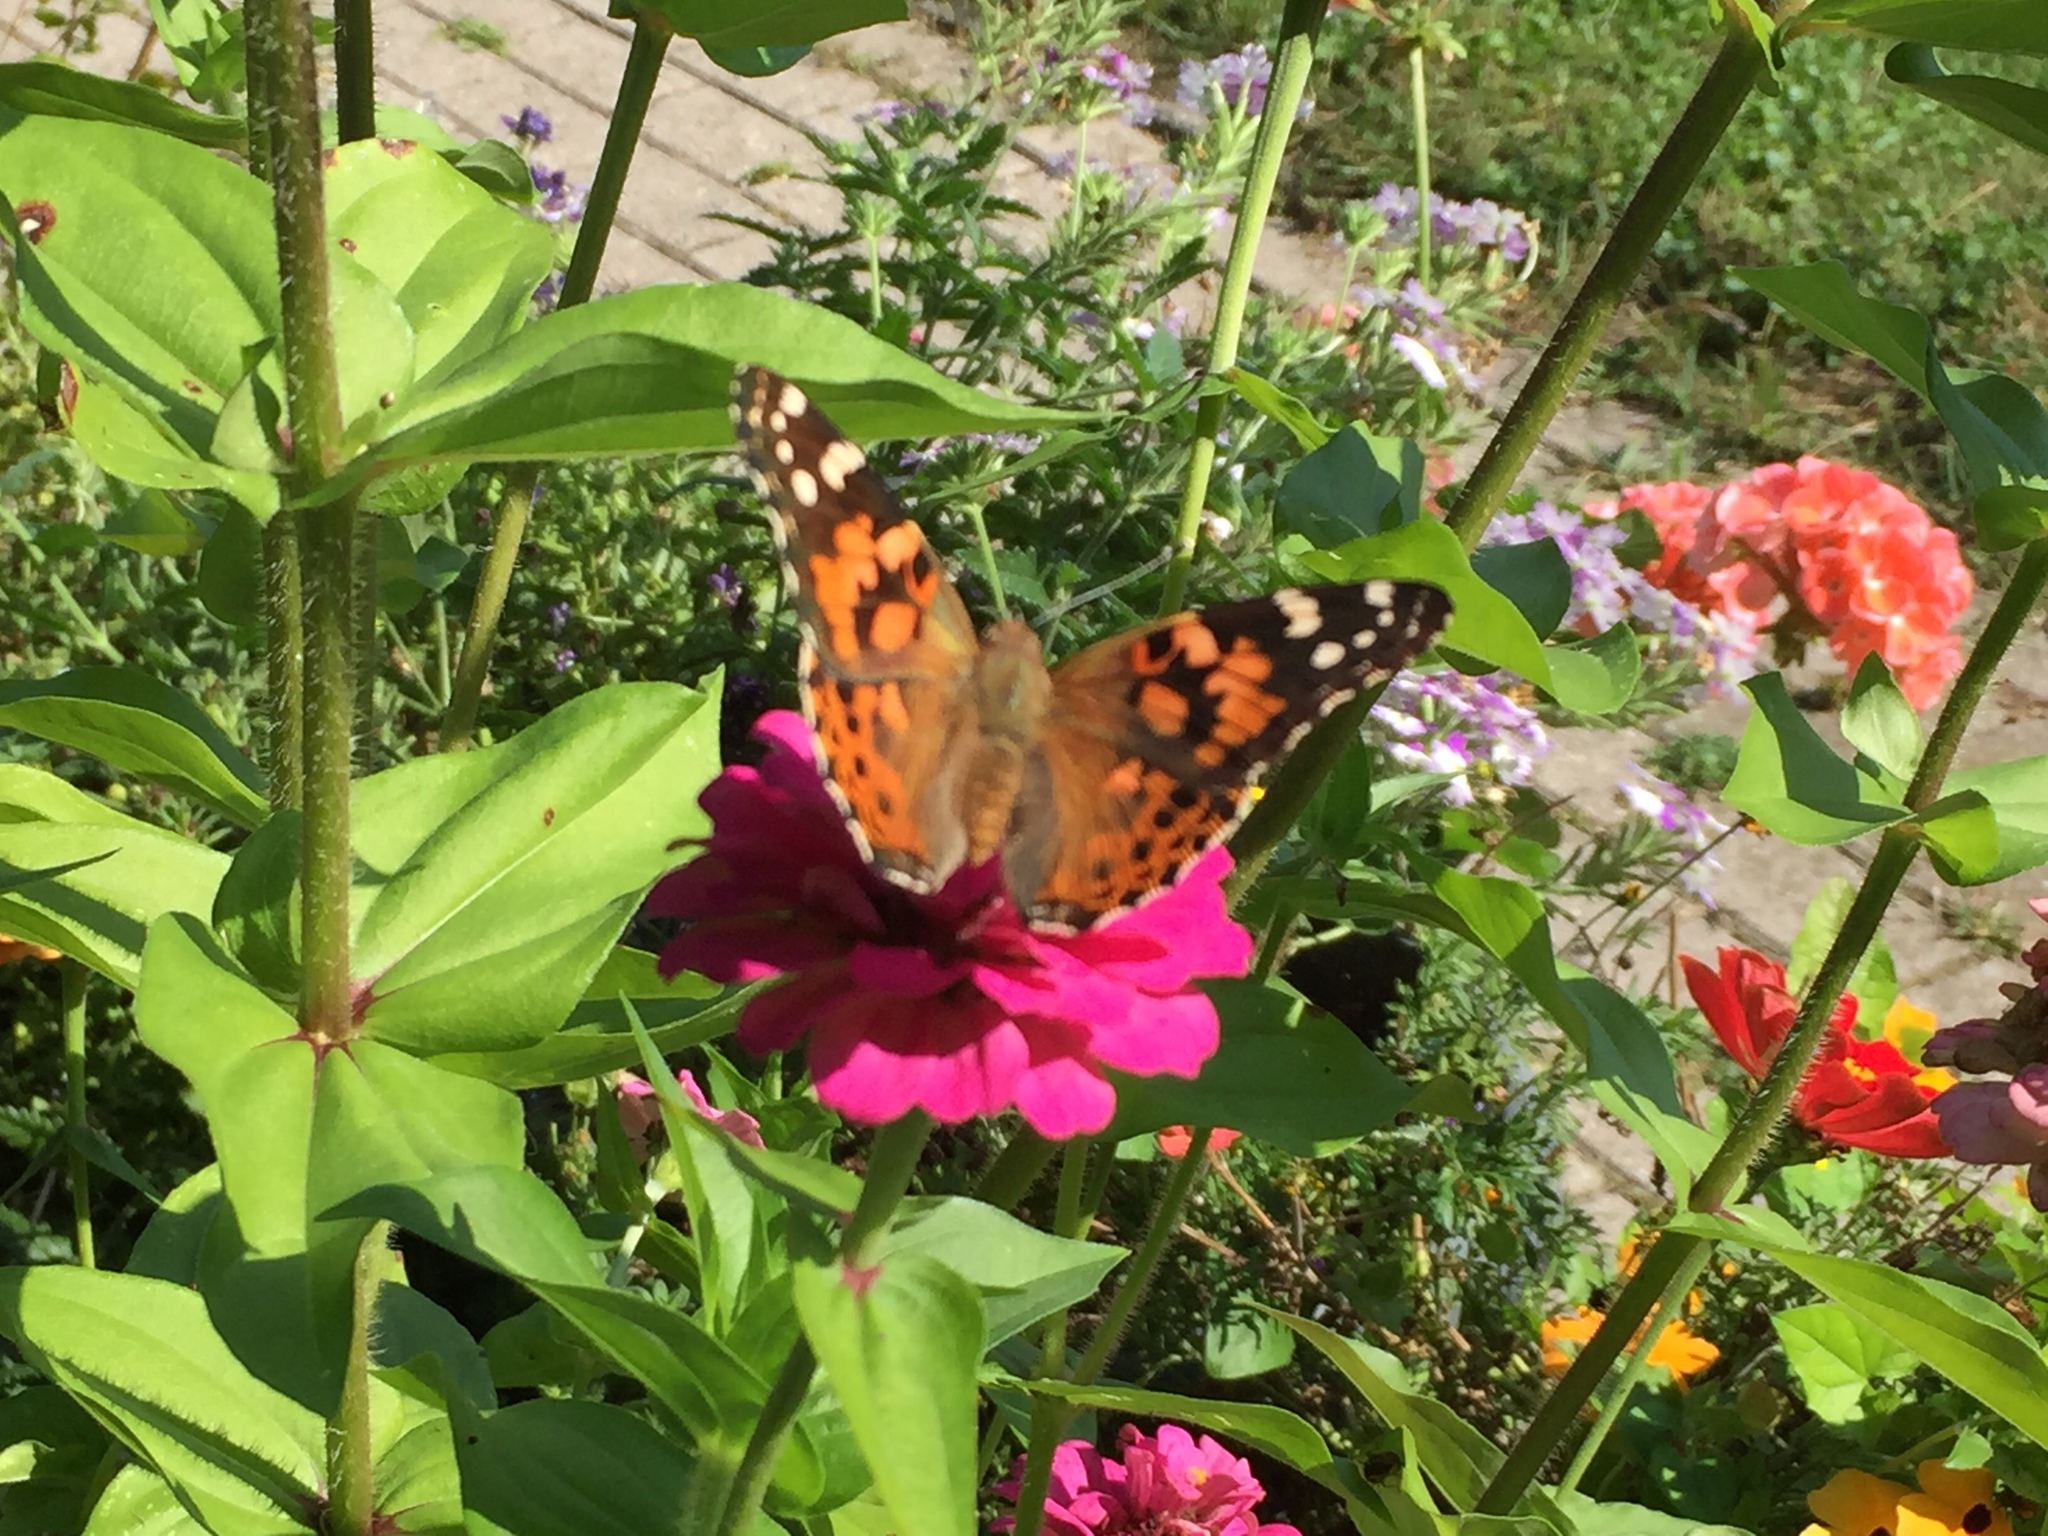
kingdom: Animalia
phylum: Arthropoda
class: Insecta
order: Lepidoptera
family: Nymphalidae
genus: Vanessa
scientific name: Vanessa cardui
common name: Painted lady
